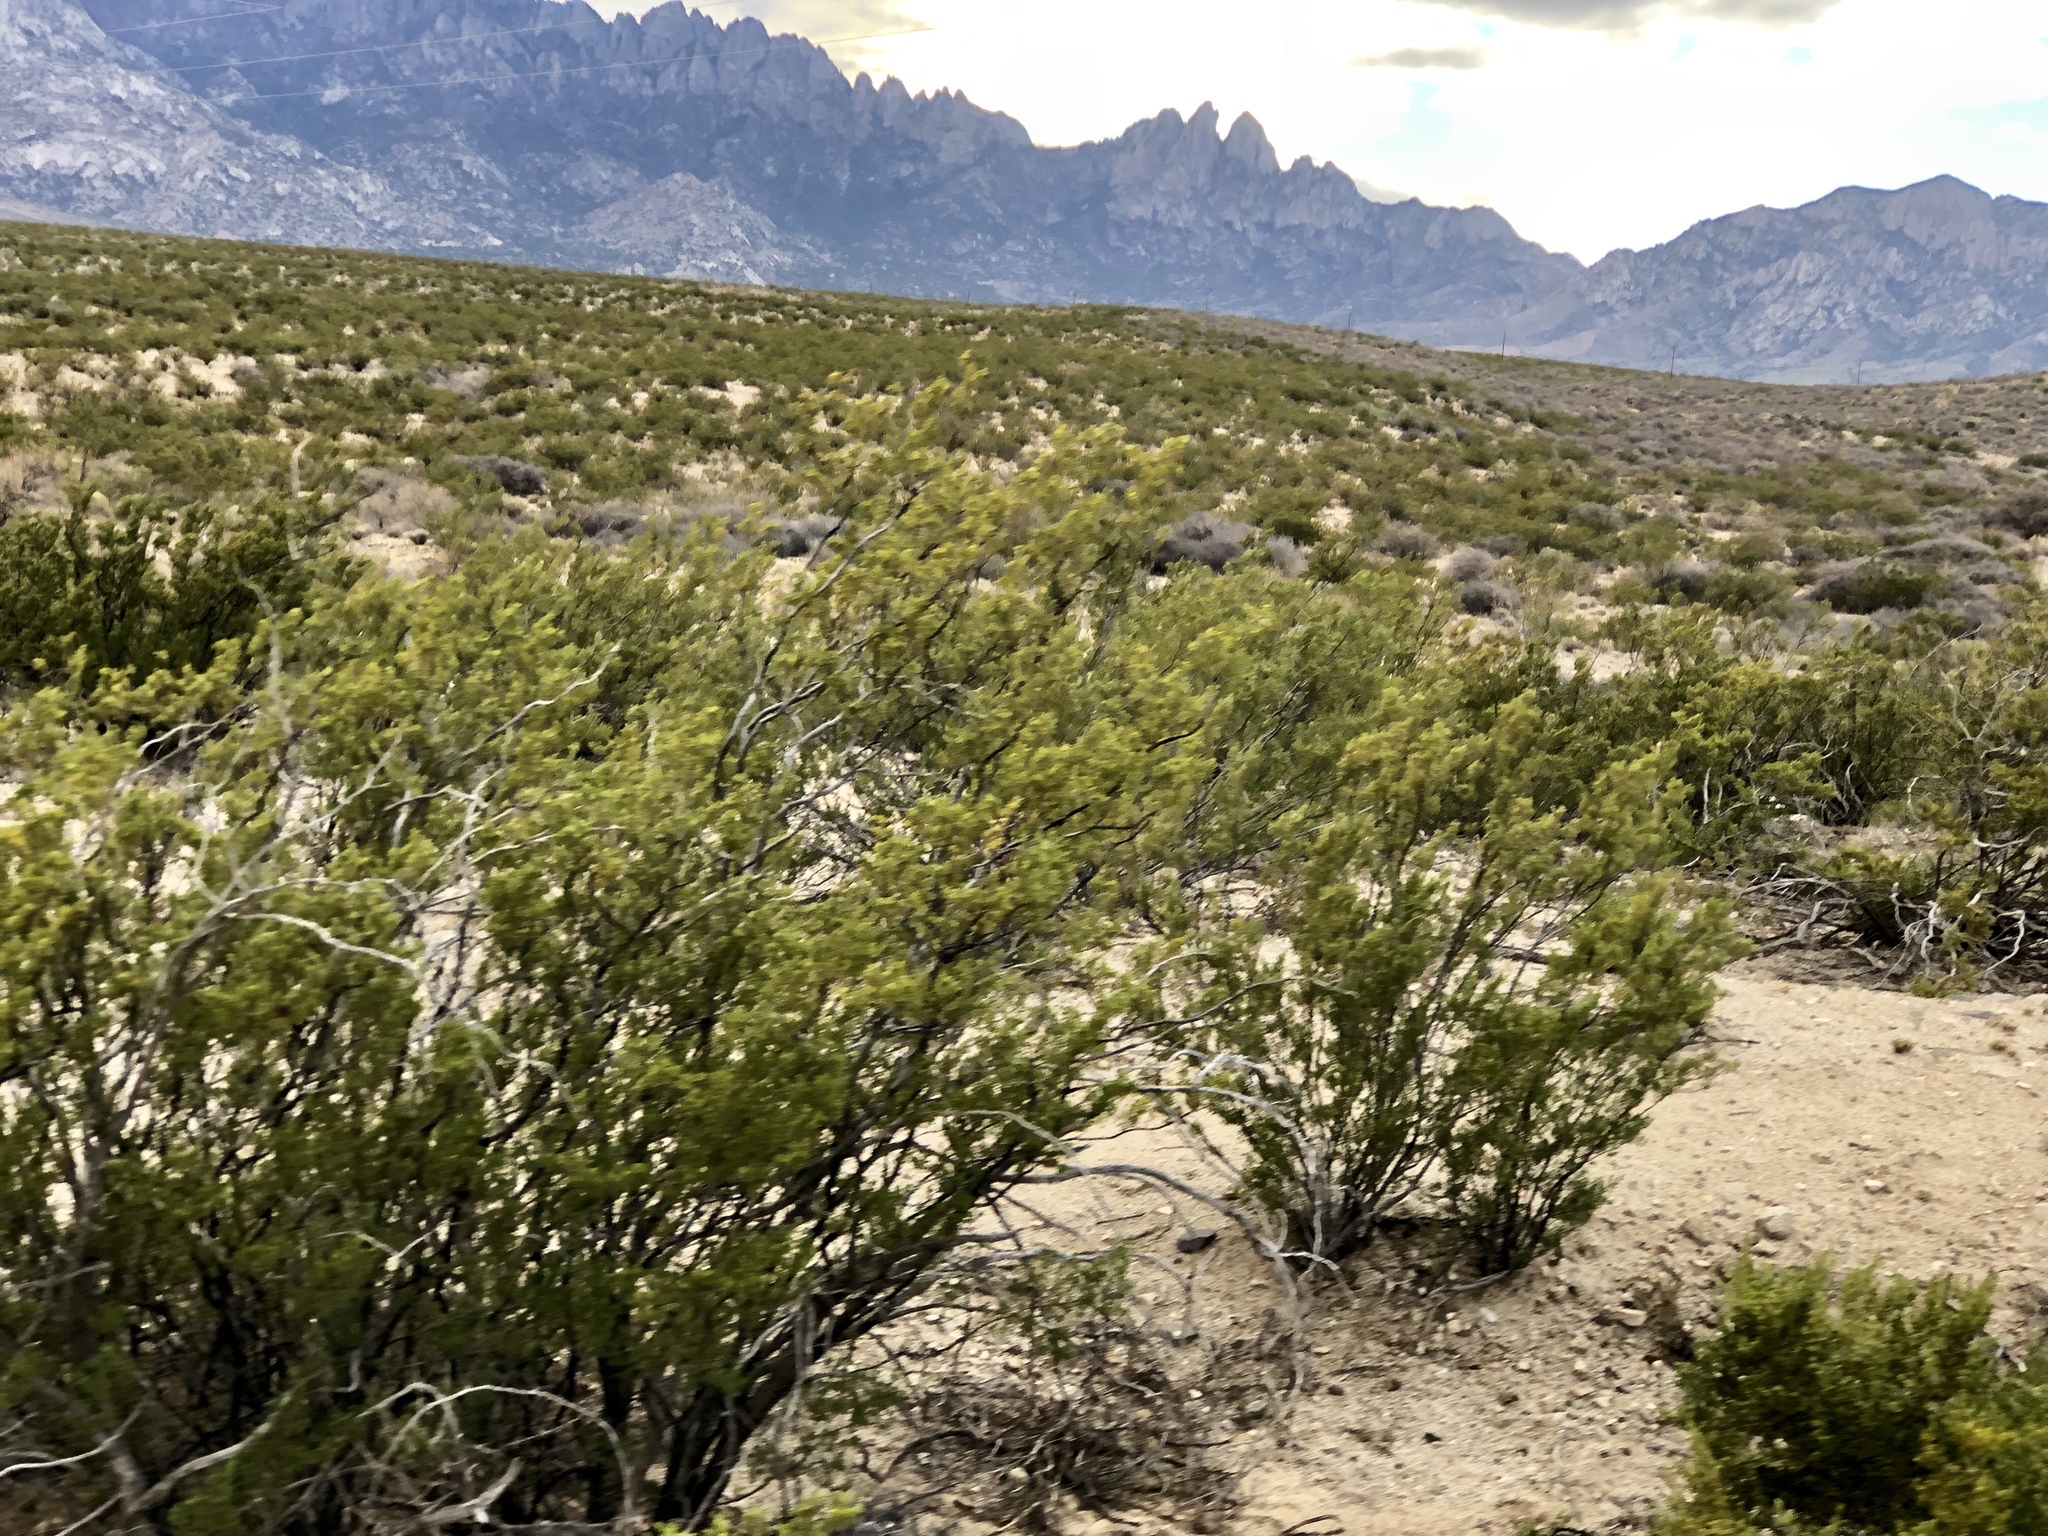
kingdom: Plantae
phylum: Tracheophyta
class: Magnoliopsida
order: Zygophyllales
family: Zygophyllaceae
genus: Larrea
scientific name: Larrea tridentata
